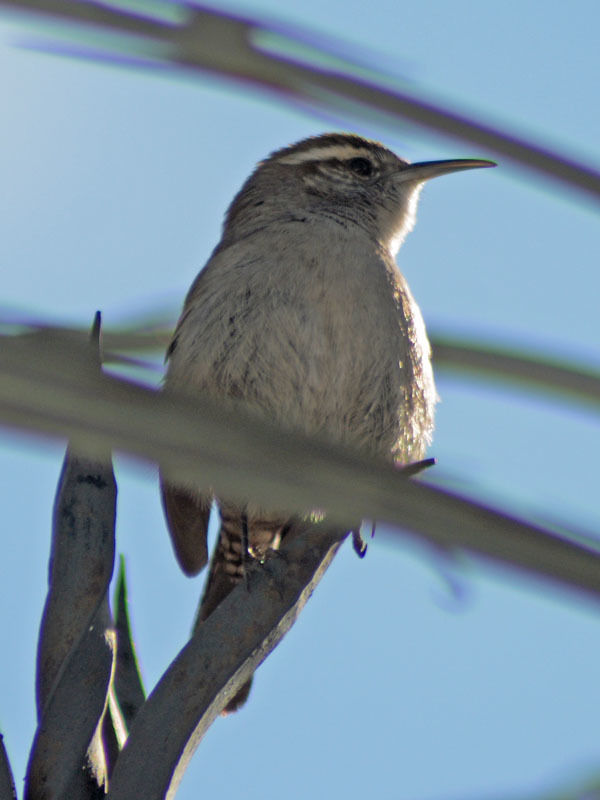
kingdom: Animalia
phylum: Chordata
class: Aves
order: Passeriformes
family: Troglodytidae
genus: Thryomanes
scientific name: Thryomanes bewickii
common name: Bewick's wren
